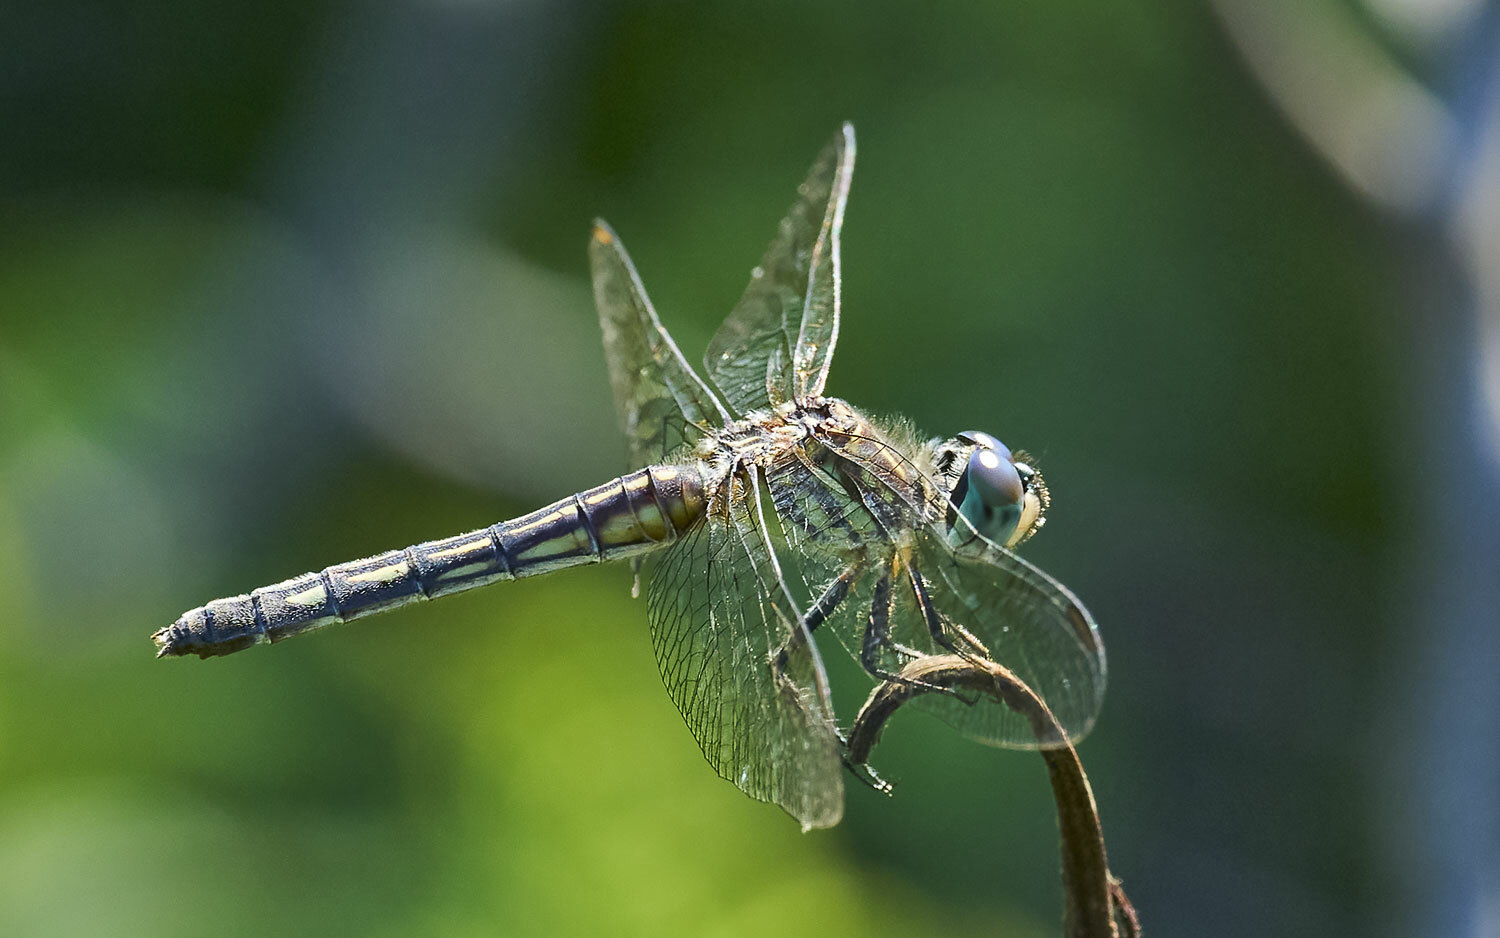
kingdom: Animalia
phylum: Arthropoda
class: Insecta
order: Odonata
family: Libellulidae
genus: Pachydiplax
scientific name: Pachydiplax longipennis
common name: Blue dasher
